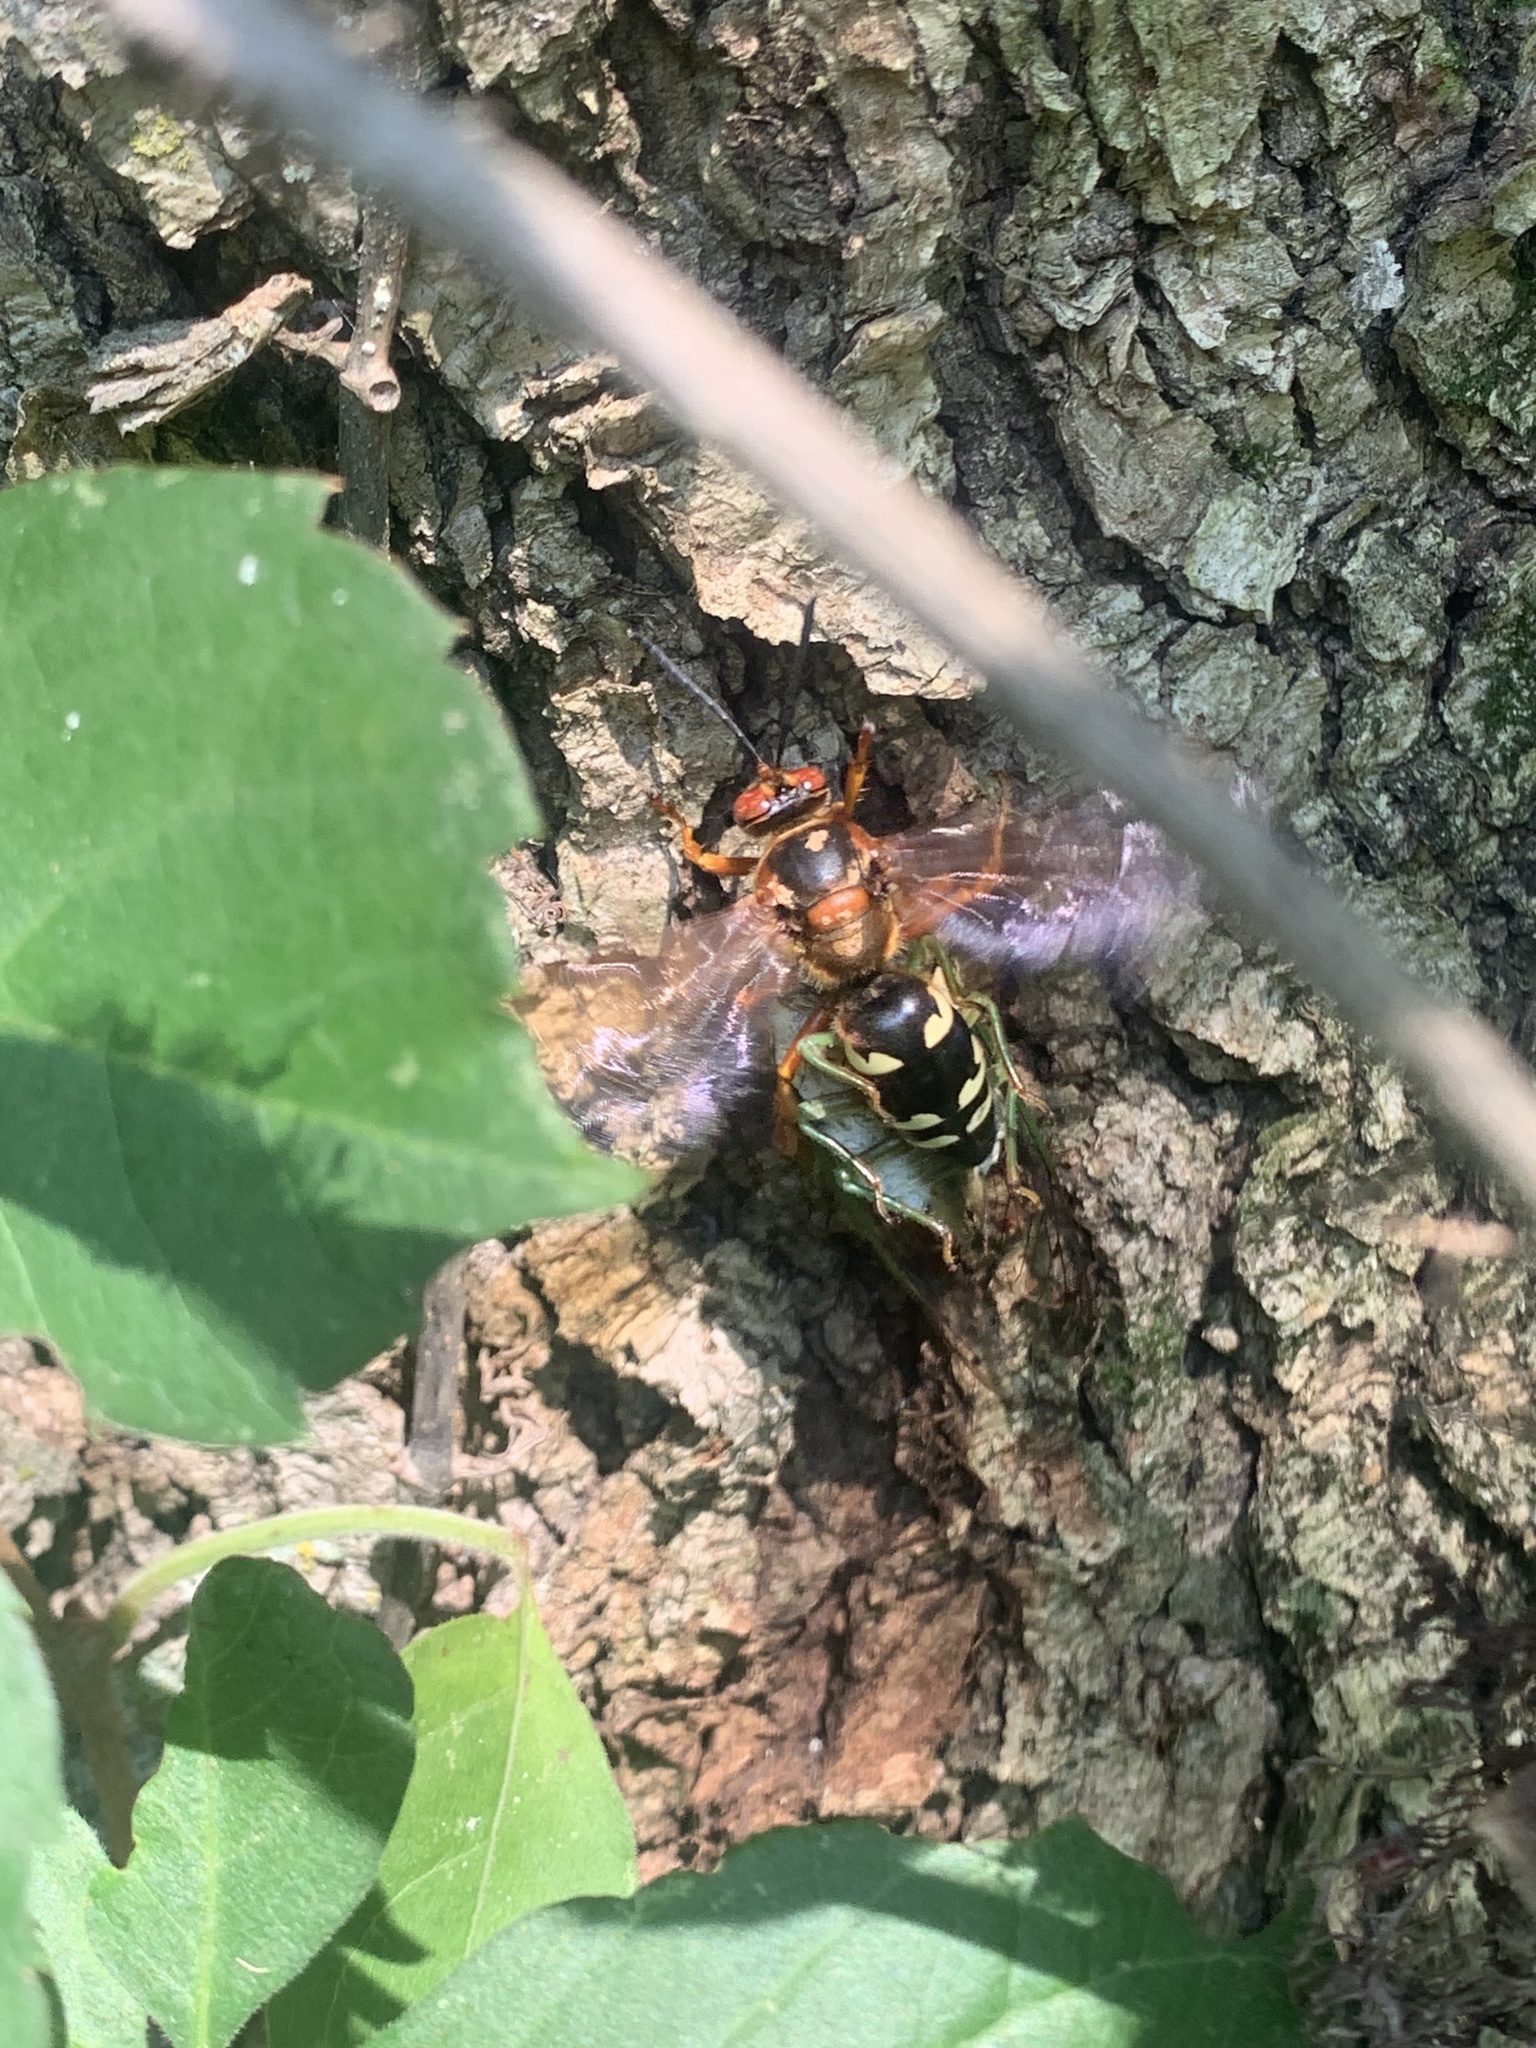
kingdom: Animalia
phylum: Arthropoda
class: Insecta
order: Hymenoptera
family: Crabronidae
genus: Sphecius
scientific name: Sphecius speciosus
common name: Cicada killer
